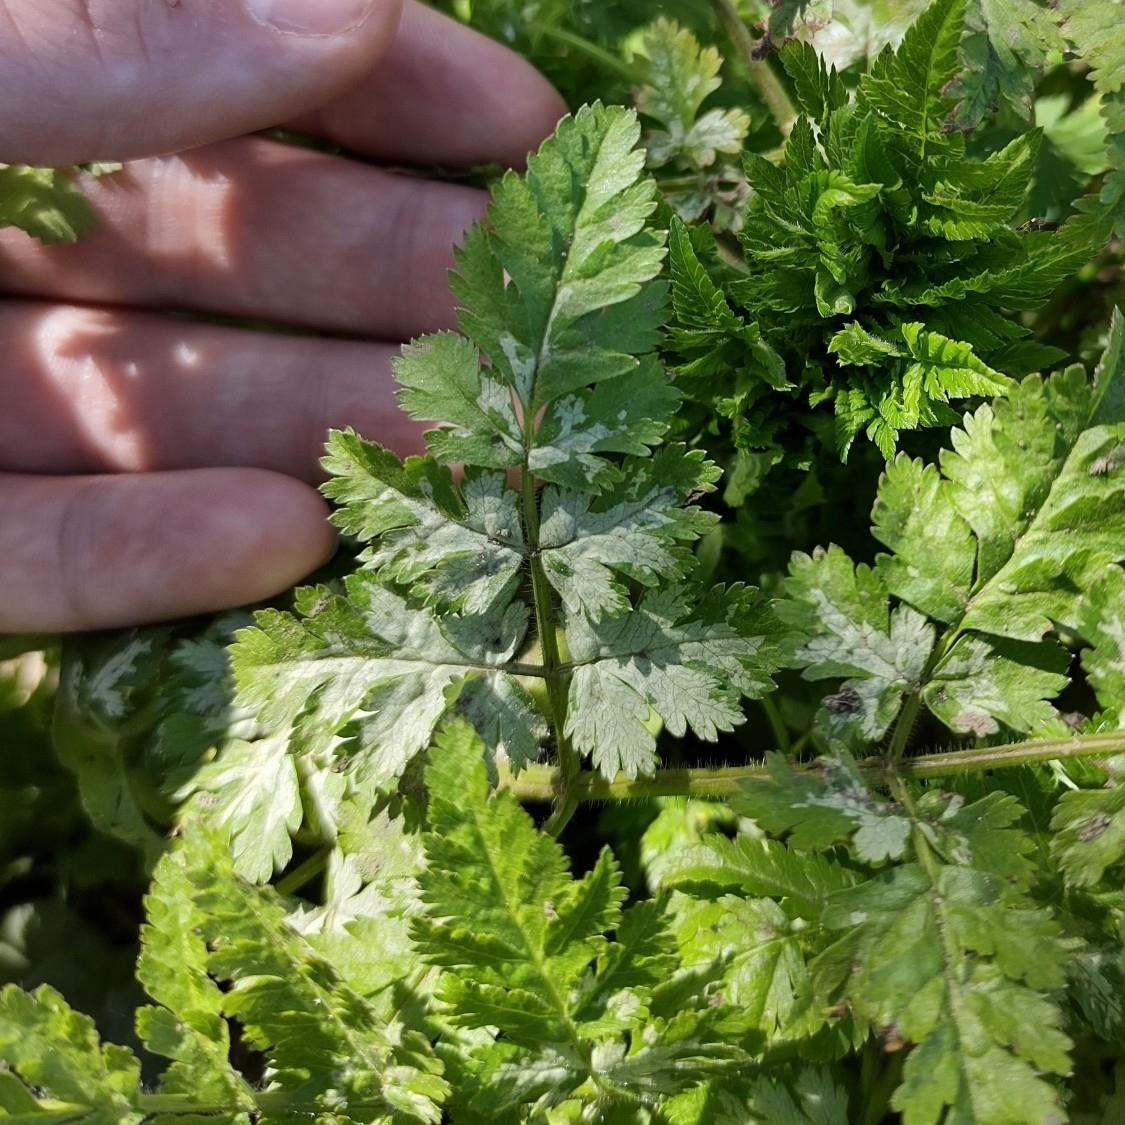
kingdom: Plantae
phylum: Tracheophyta
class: Magnoliopsida
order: Apiales
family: Apiaceae
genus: Myrrhis
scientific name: Myrrhis odorata
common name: Sweet cicely
